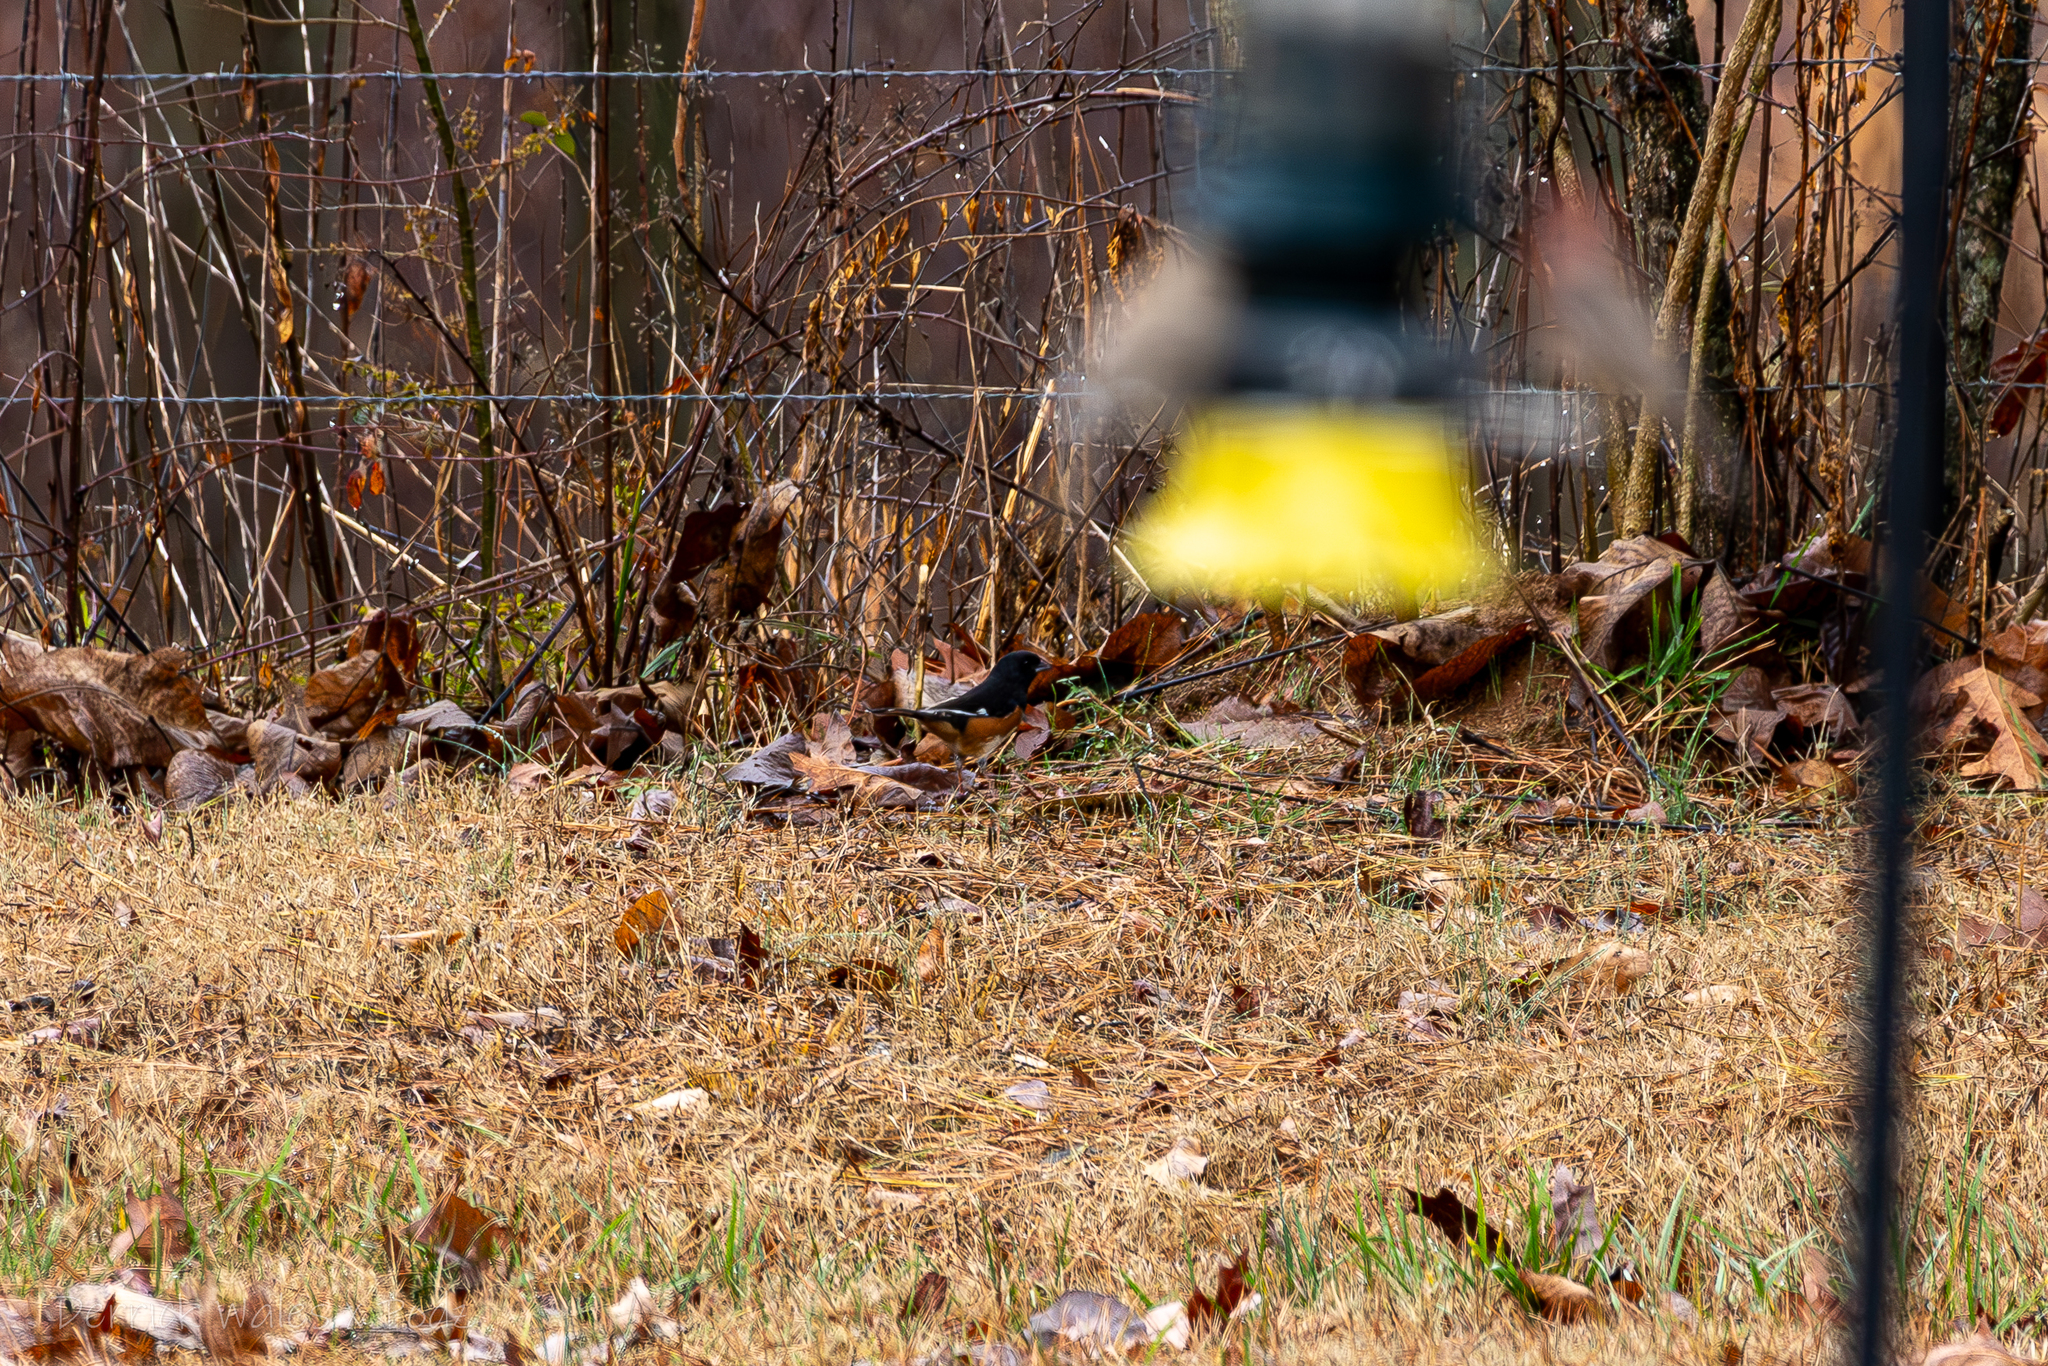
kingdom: Animalia
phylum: Chordata
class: Aves
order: Passeriformes
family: Passerellidae
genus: Pipilo
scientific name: Pipilo erythrophthalmus
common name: Eastern towhee
